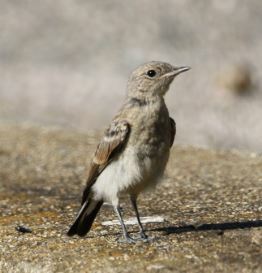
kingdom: Animalia
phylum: Chordata
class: Aves
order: Passeriformes
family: Muscicapidae
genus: Oenanthe
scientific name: Oenanthe hispanica
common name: Black-eared wheatear
